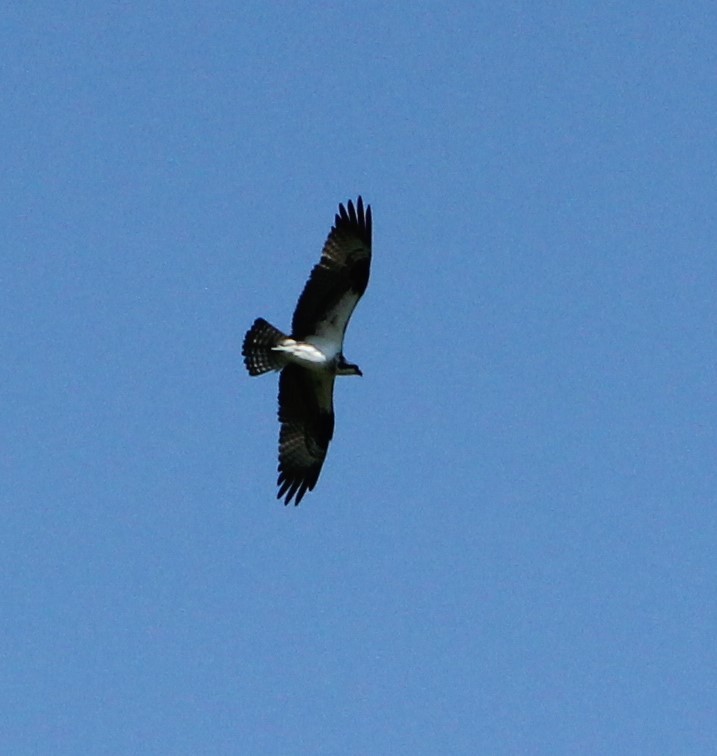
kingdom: Animalia
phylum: Chordata
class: Aves
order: Accipitriformes
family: Pandionidae
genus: Pandion
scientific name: Pandion haliaetus
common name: Osprey
